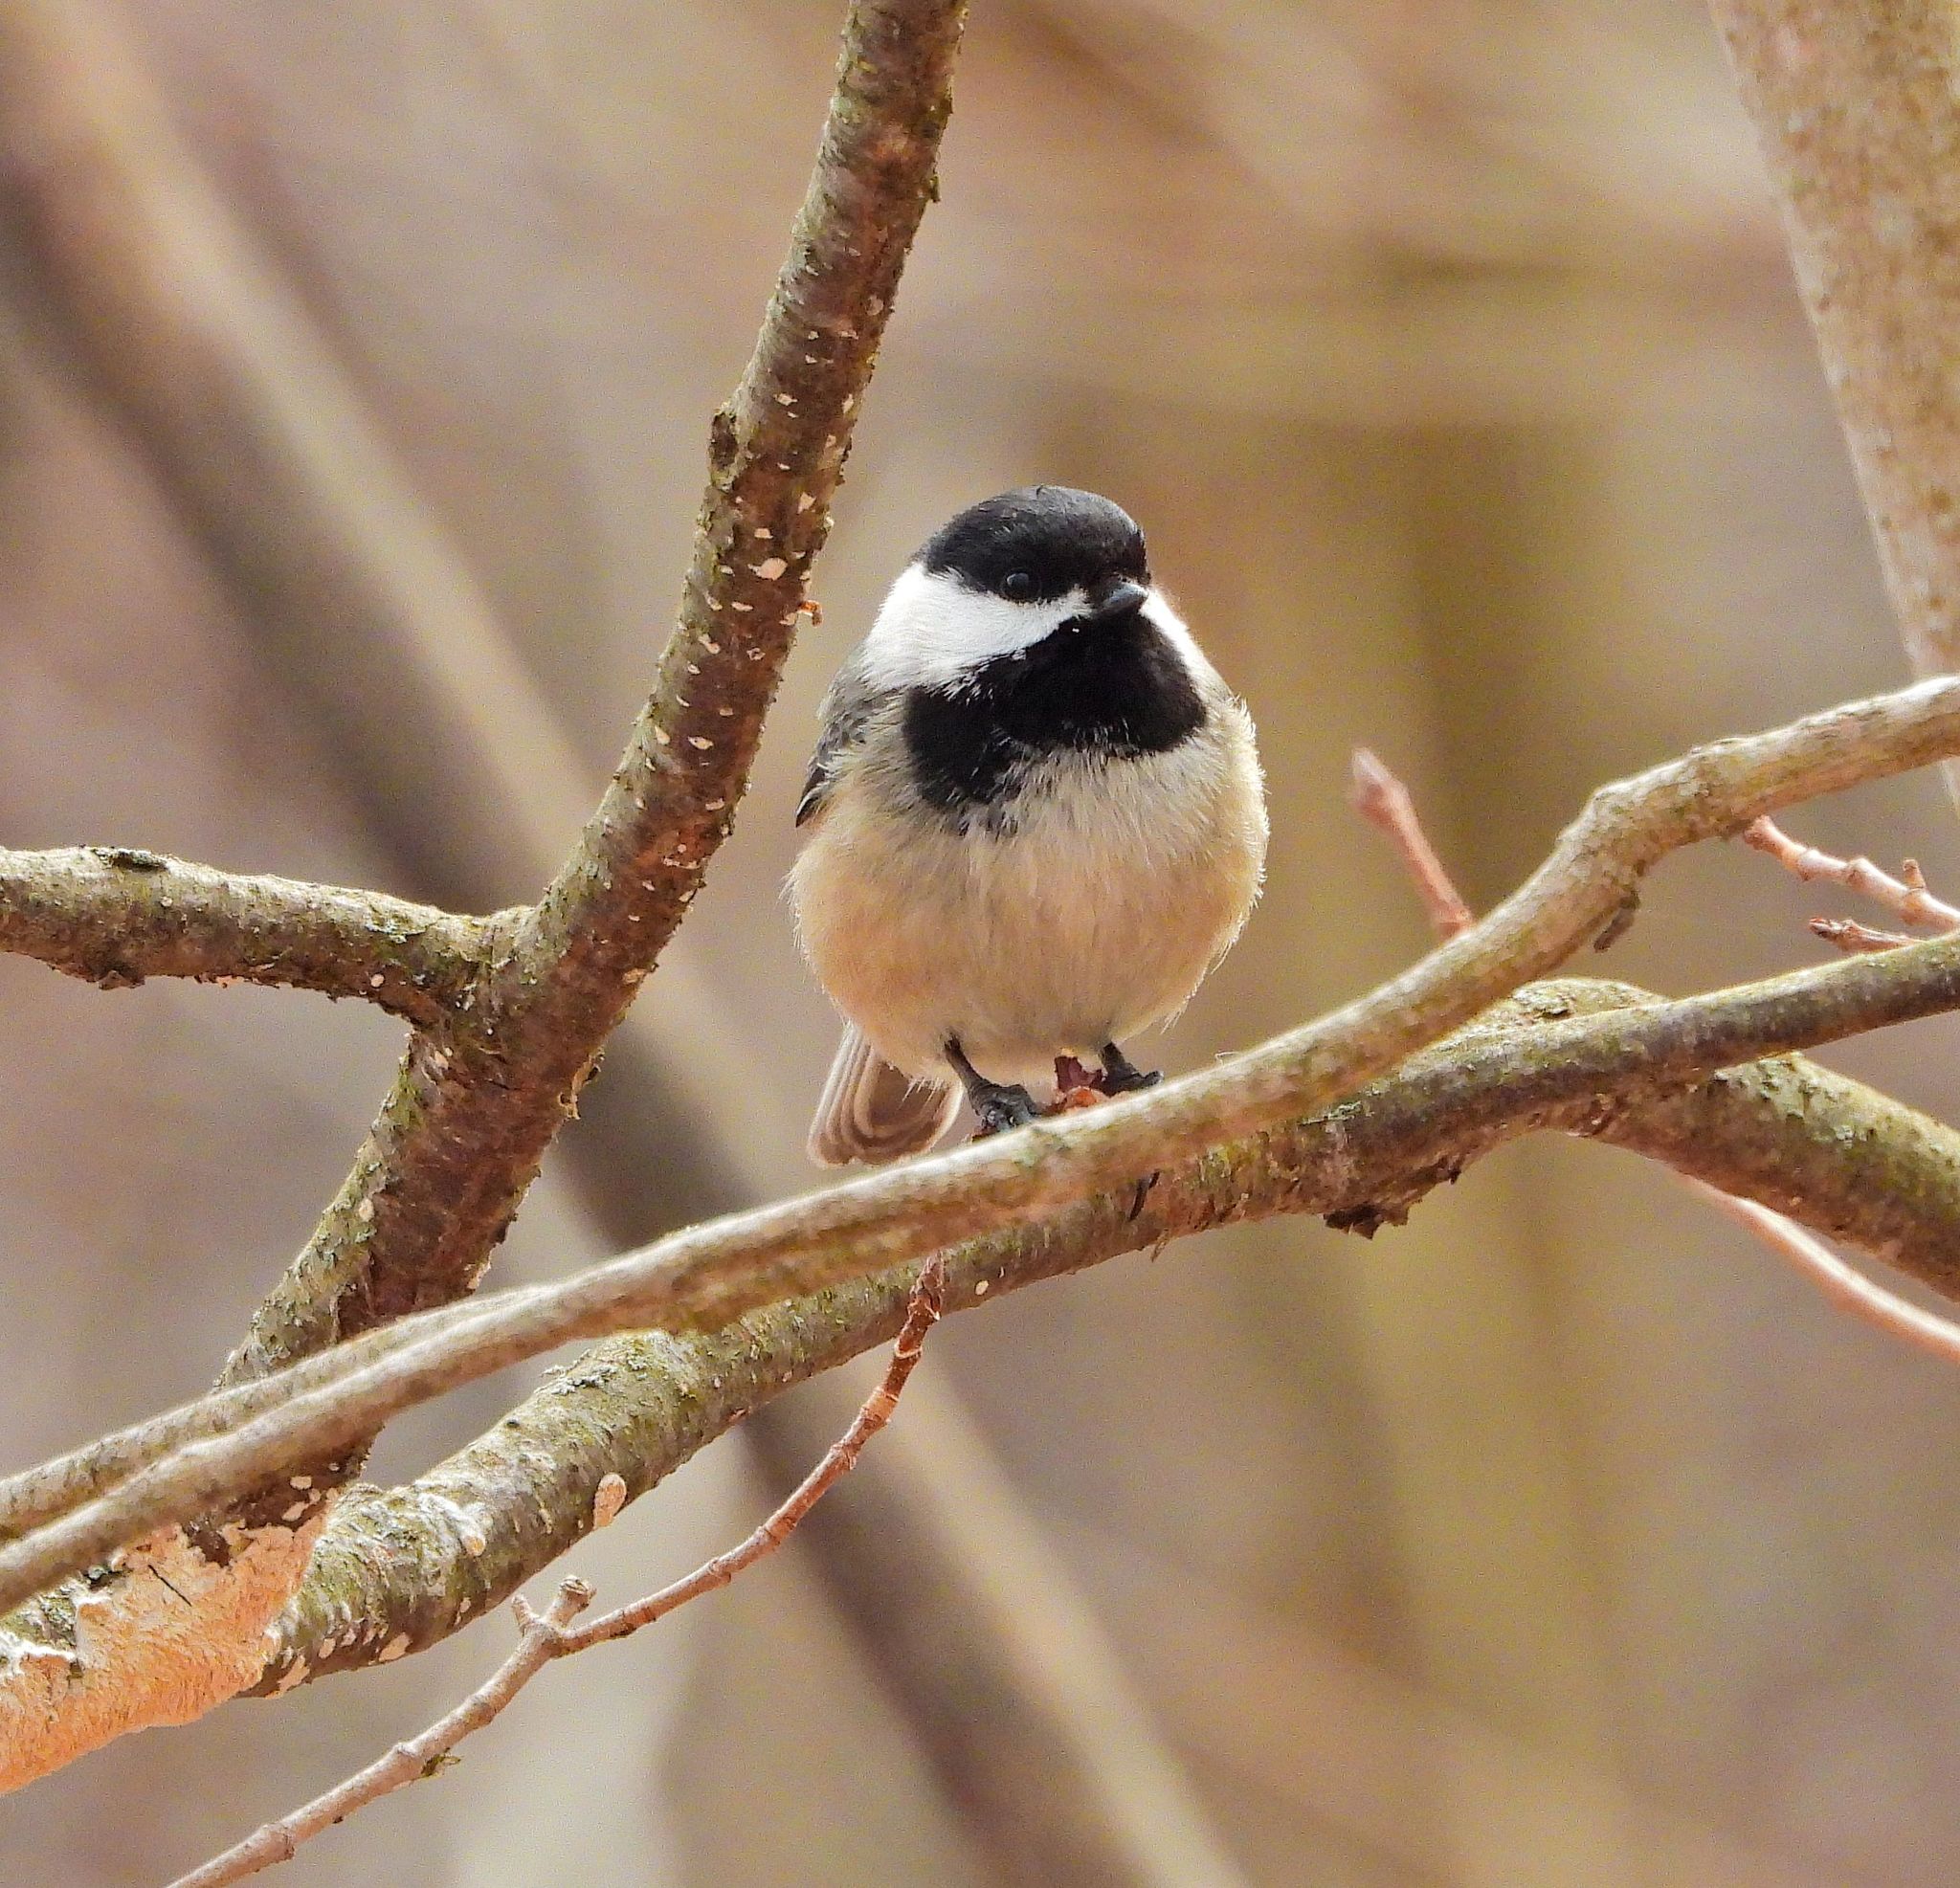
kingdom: Animalia
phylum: Chordata
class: Aves
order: Passeriformes
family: Paridae
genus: Poecile
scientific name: Poecile atricapillus
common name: Black-capped chickadee
